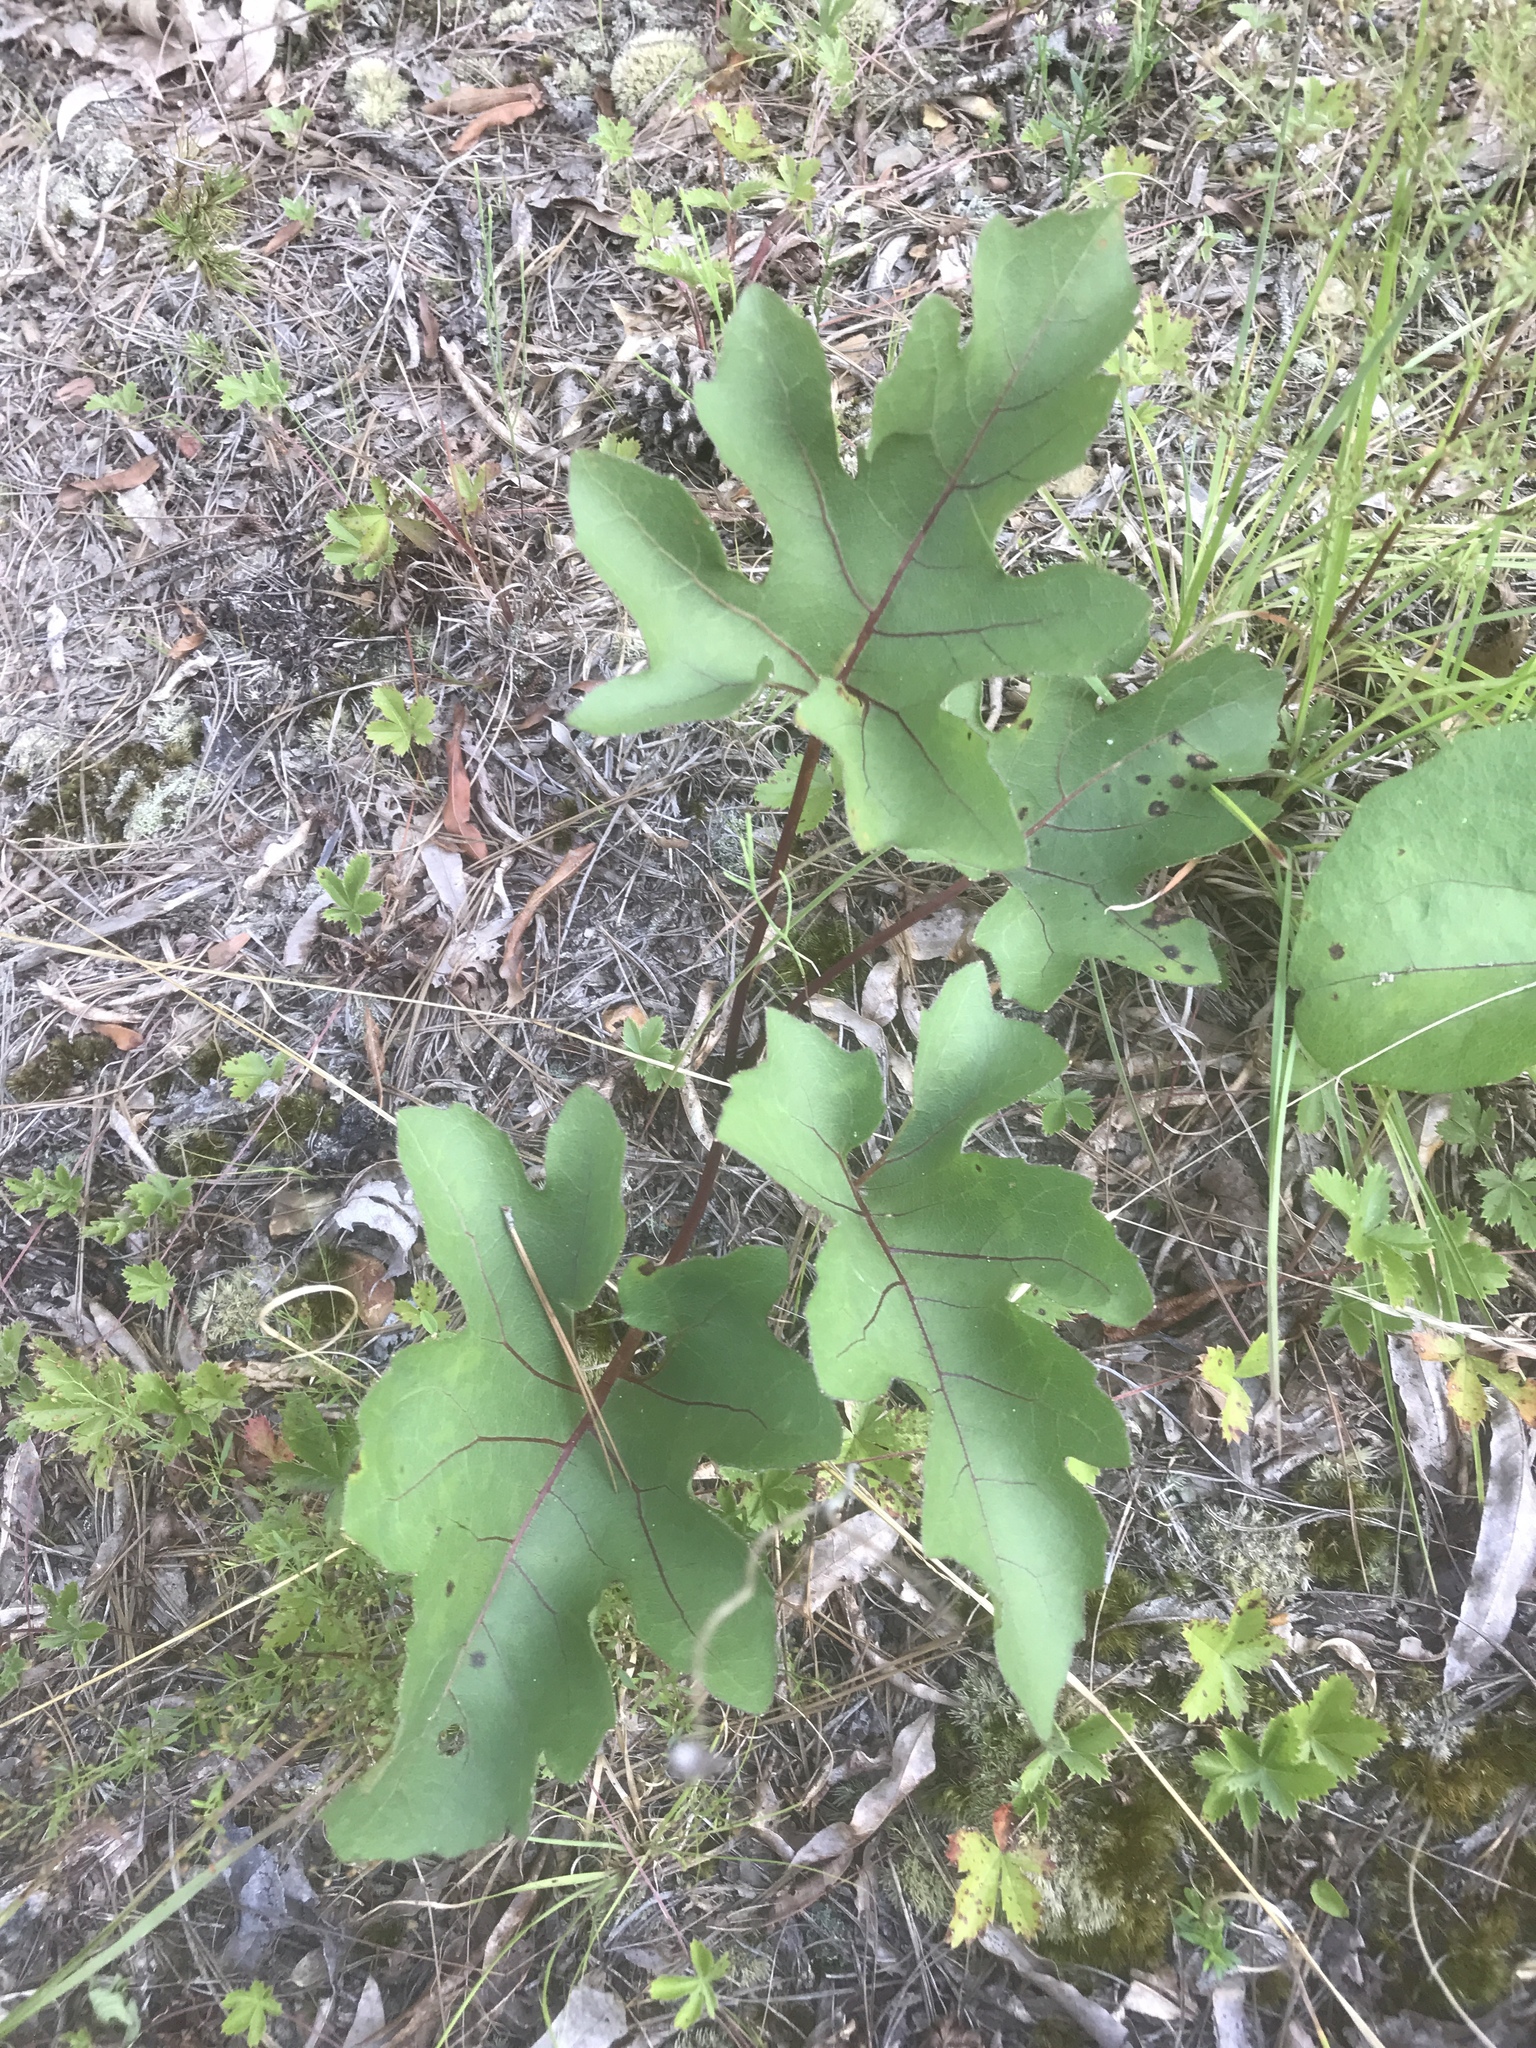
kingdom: Plantae
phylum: Tracheophyta
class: Magnoliopsida
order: Asterales
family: Asteraceae
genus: Silphium
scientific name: Silphium compositum
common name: Lesser basal-leaf rosinweed
